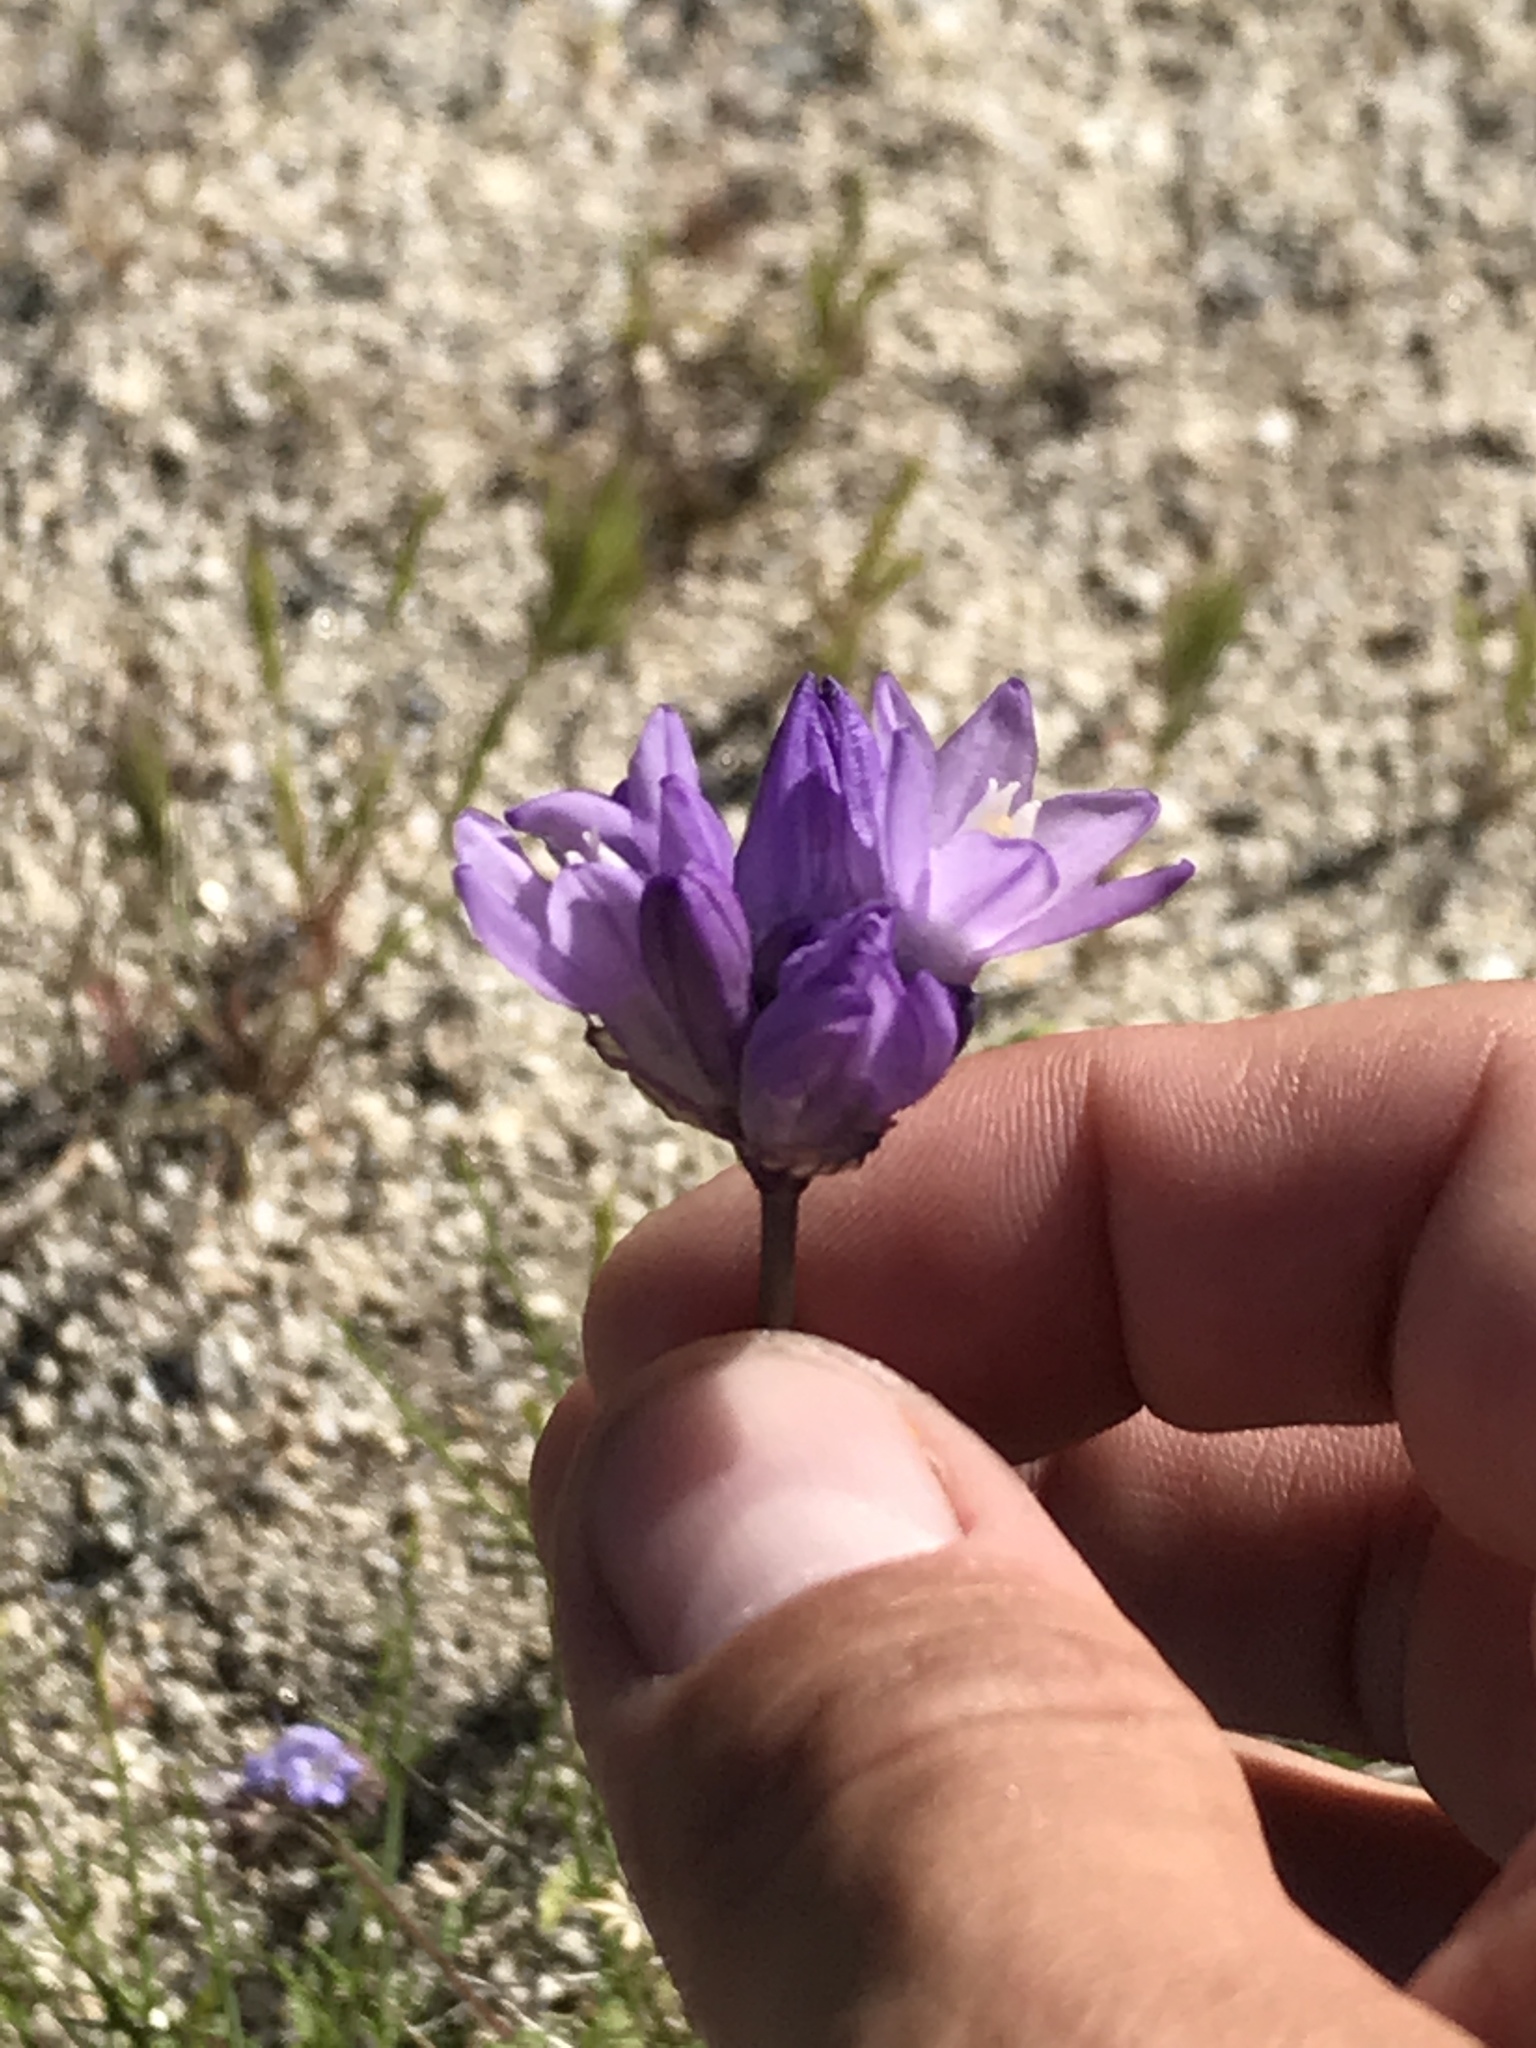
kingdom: Plantae
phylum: Tracheophyta
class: Liliopsida
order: Asparagales
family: Asparagaceae
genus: Dipterostemon
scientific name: Dipterostemon capitatus
